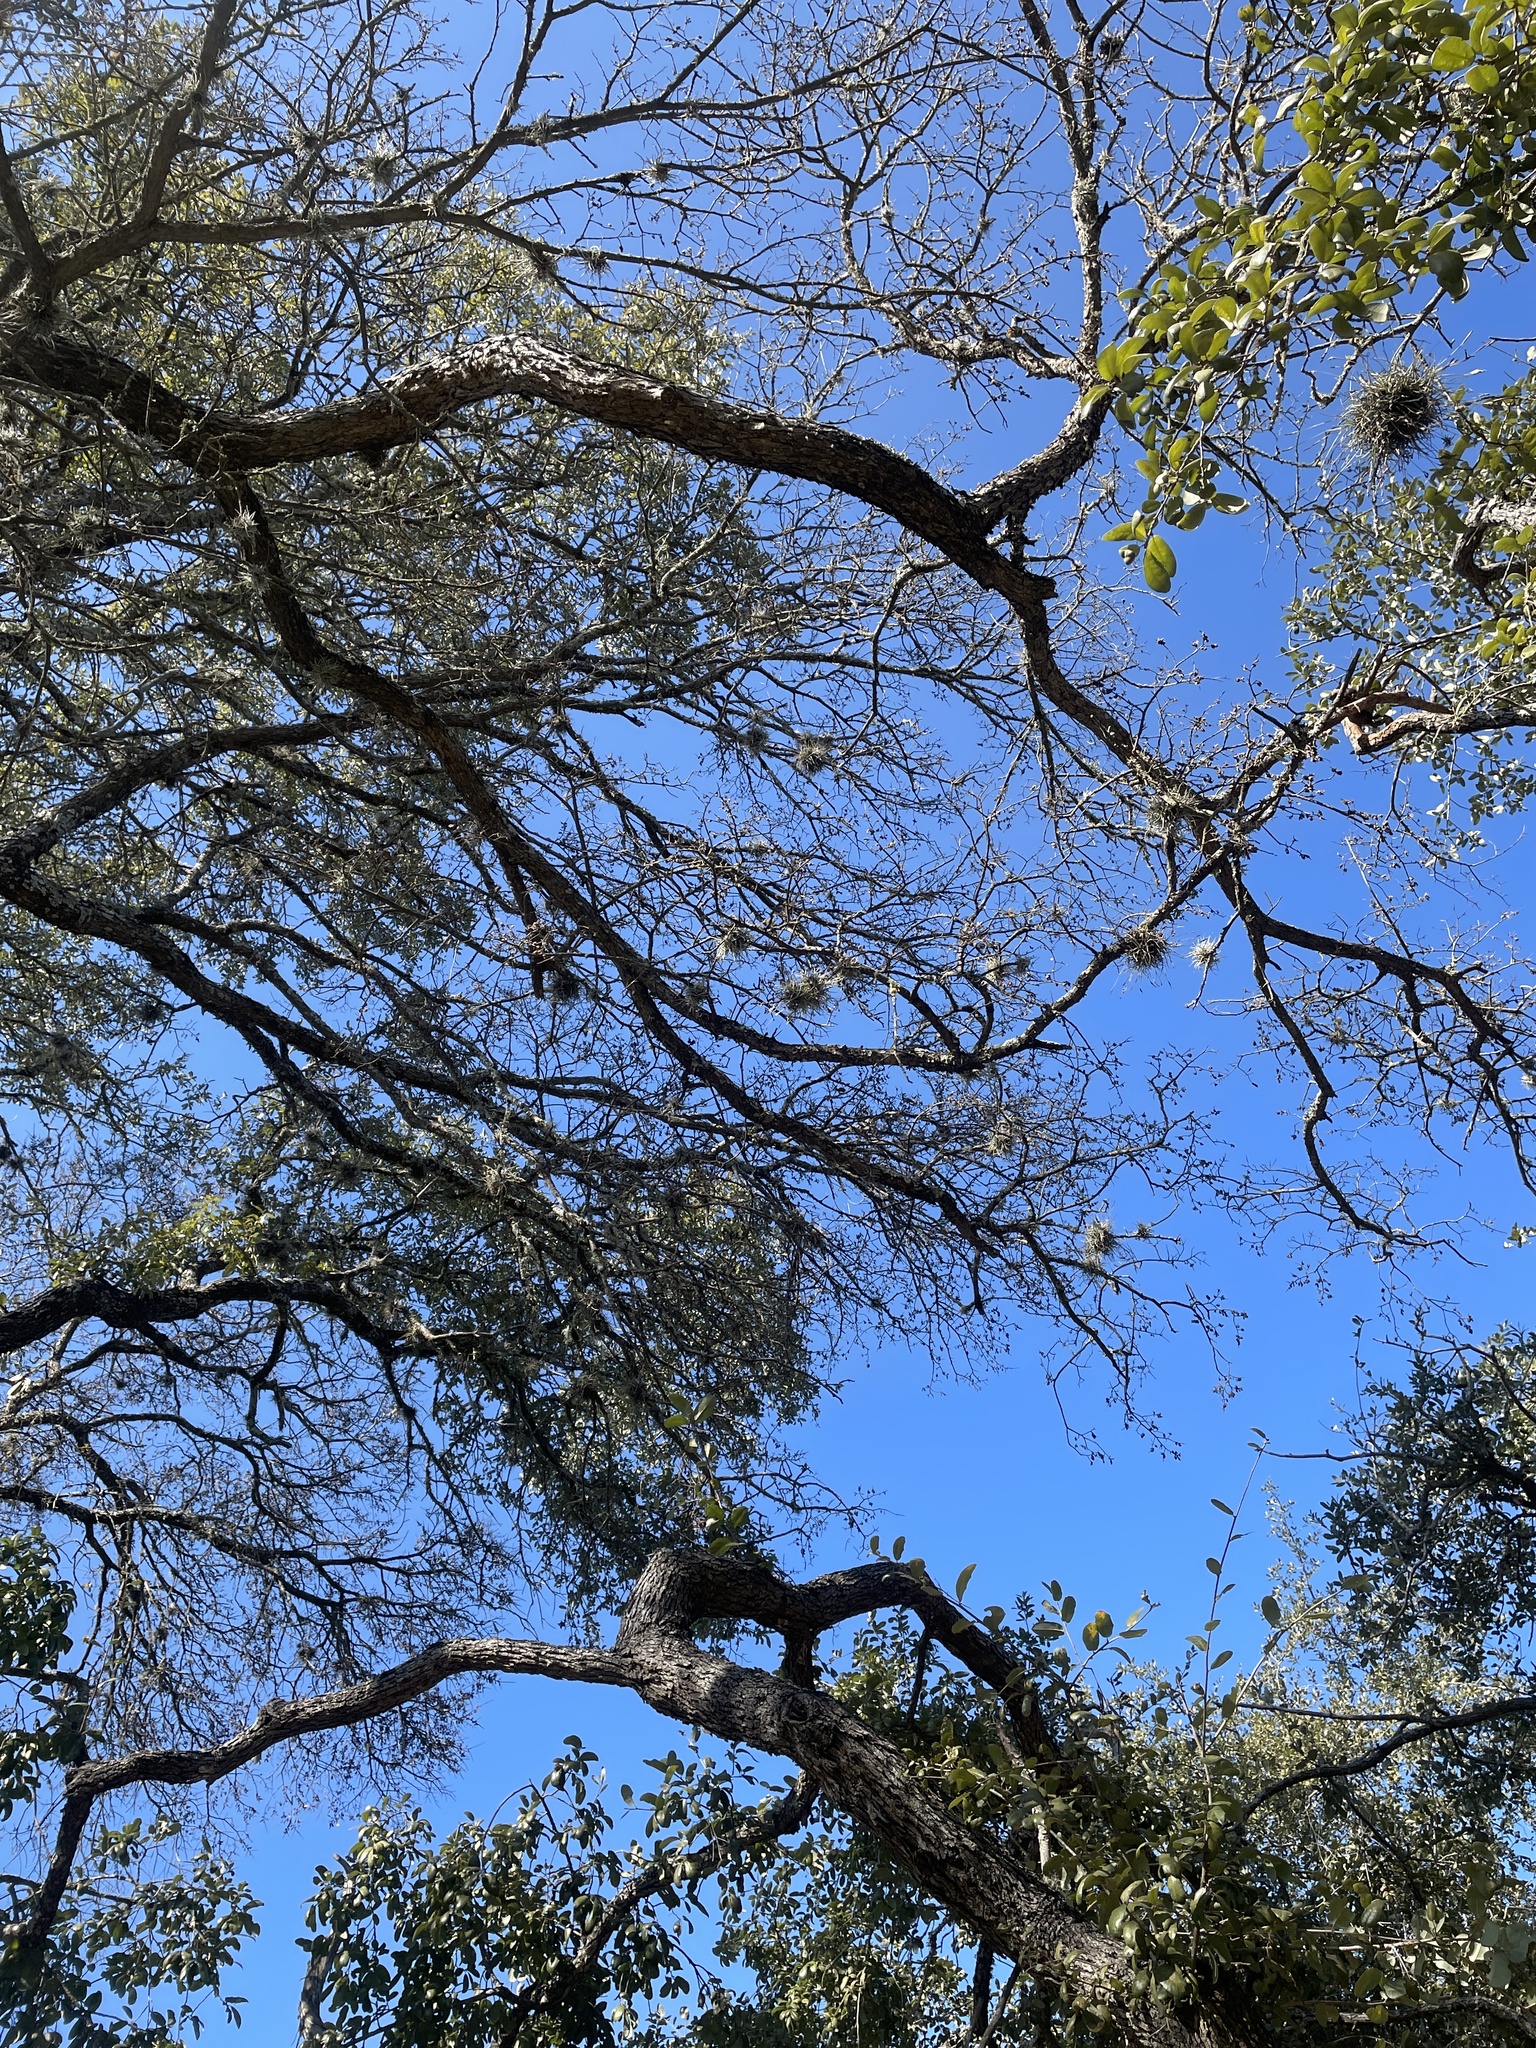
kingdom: Plantae
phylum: Tracheophyta
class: Liliopsida
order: Poales
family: Bromeliaceae
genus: Tillandsia
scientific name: Tillandsia recurvata
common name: Small ballmoss
